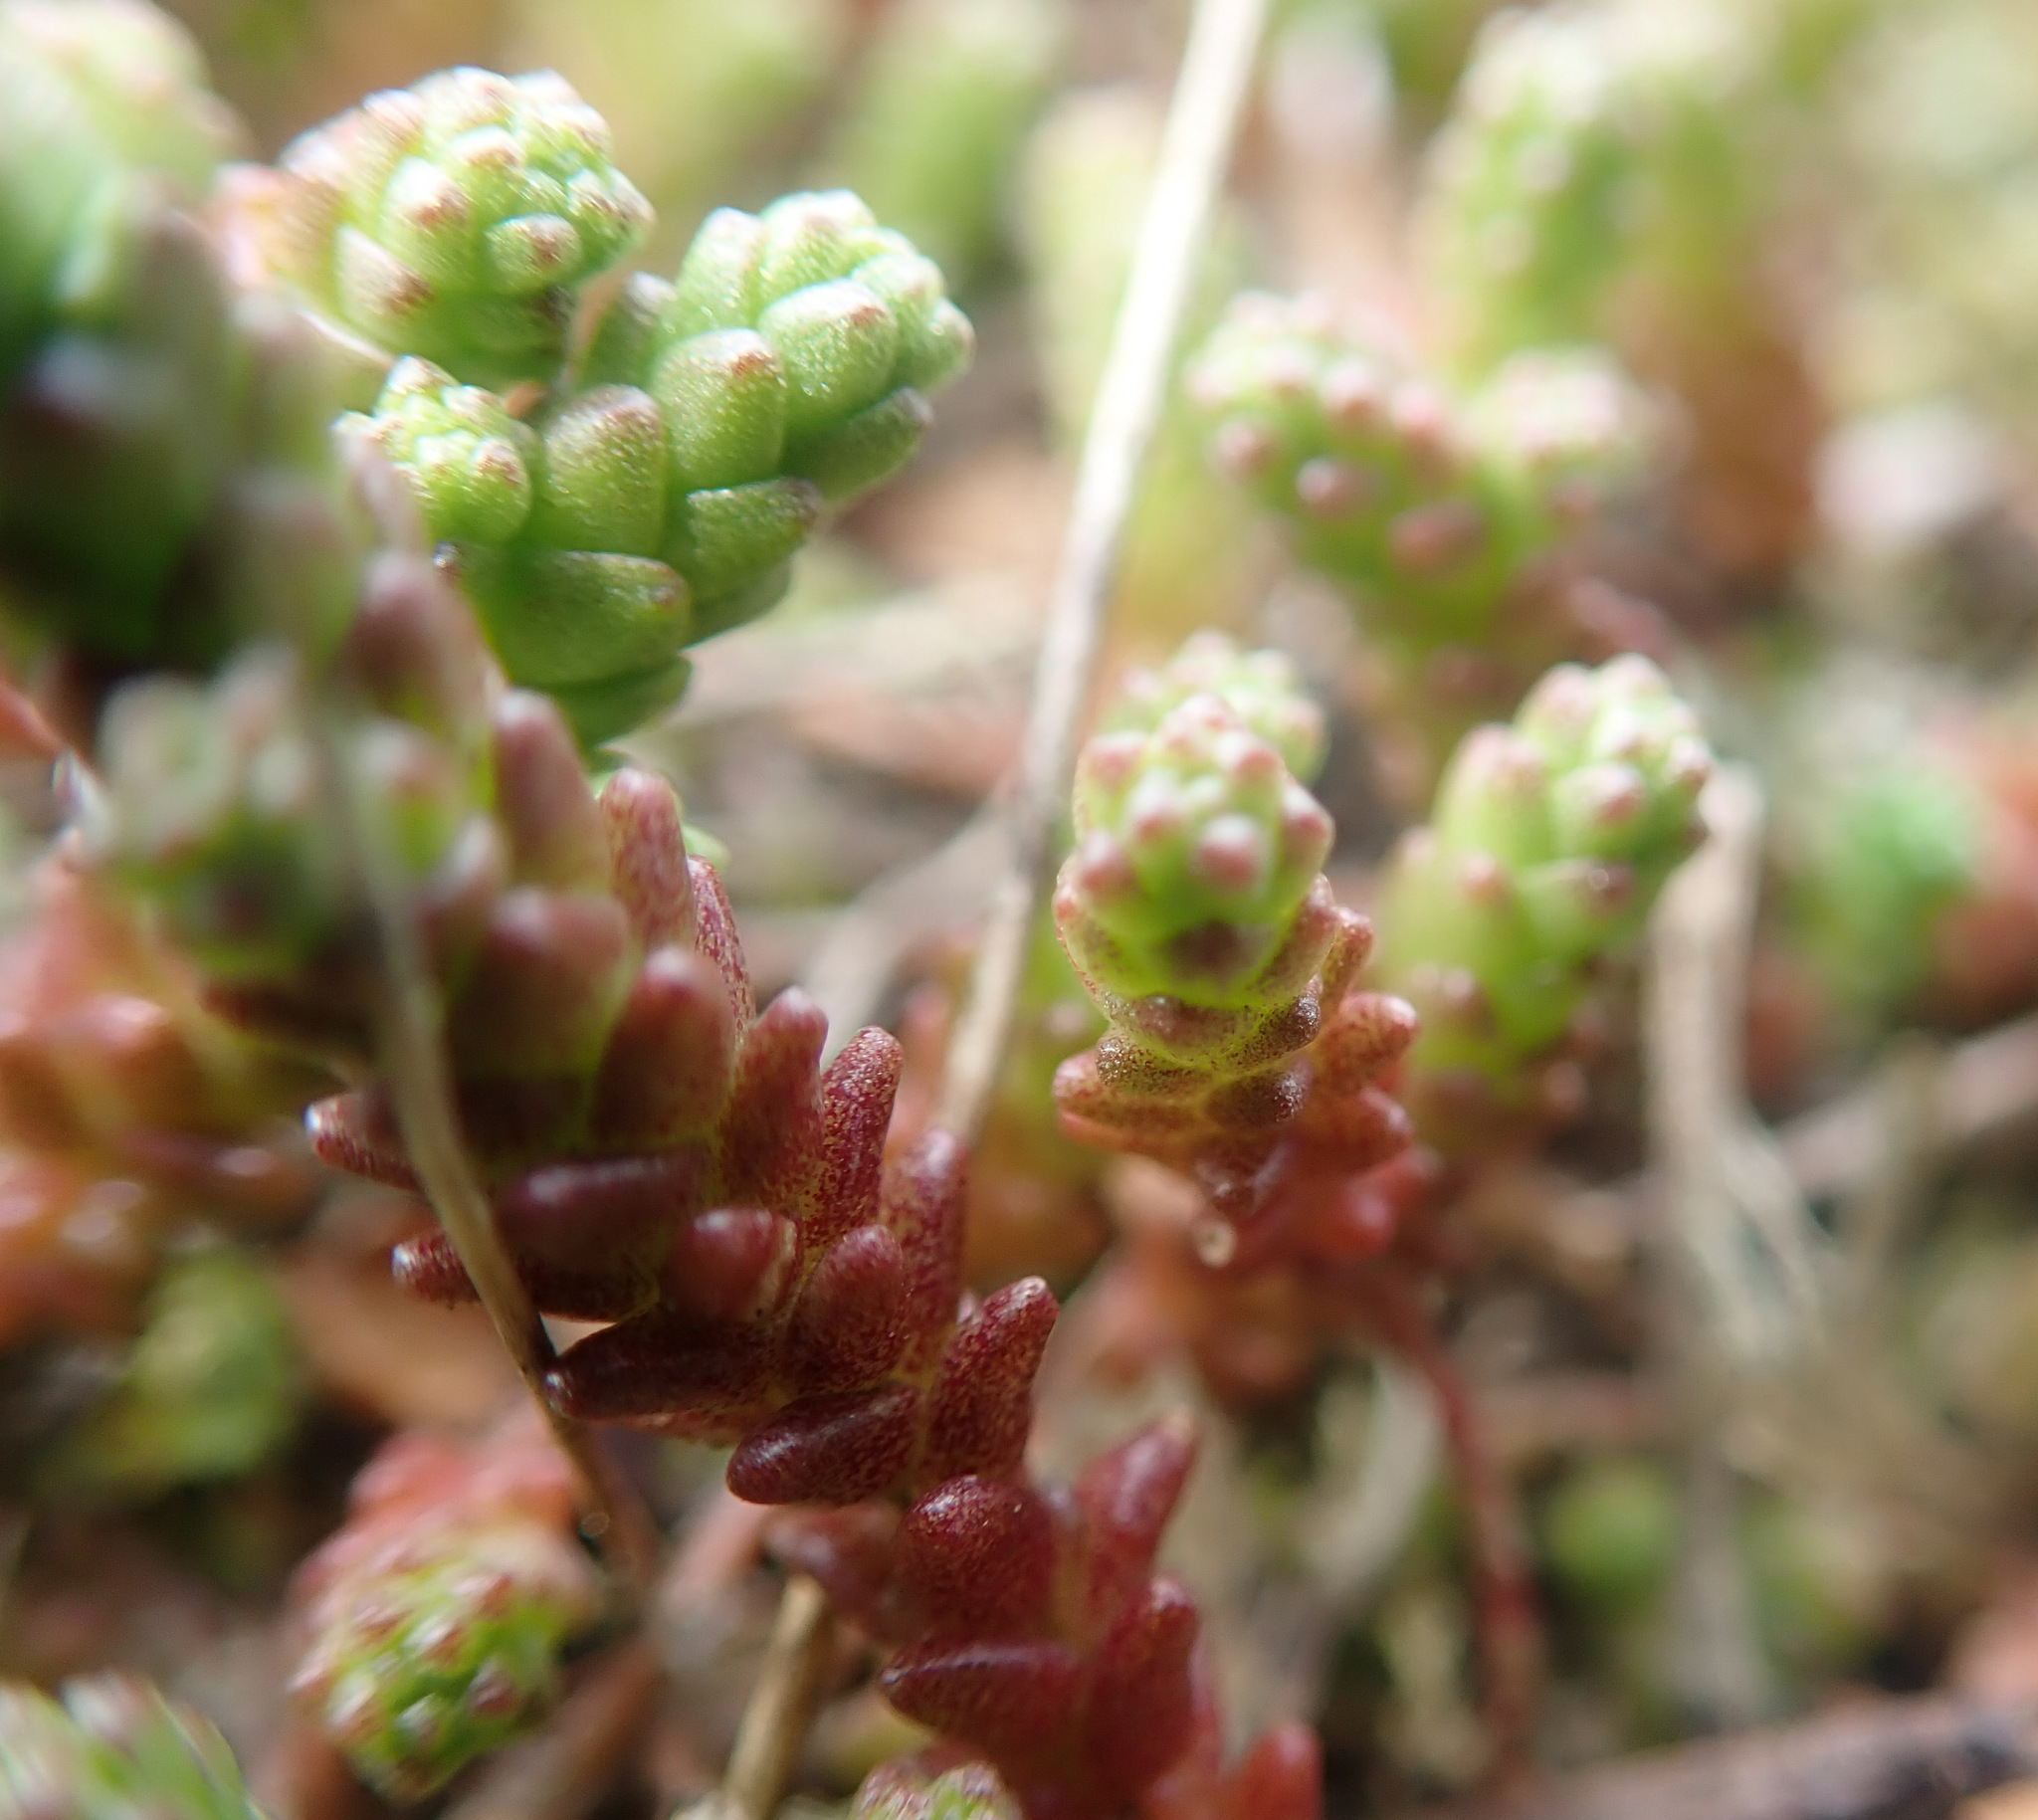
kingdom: Plantae
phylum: Tracheophyta
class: Magnoliopsida
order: Saxifragales
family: Crassulaceae
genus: Sedum
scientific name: Sedum acre
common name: Biting stonecrop
